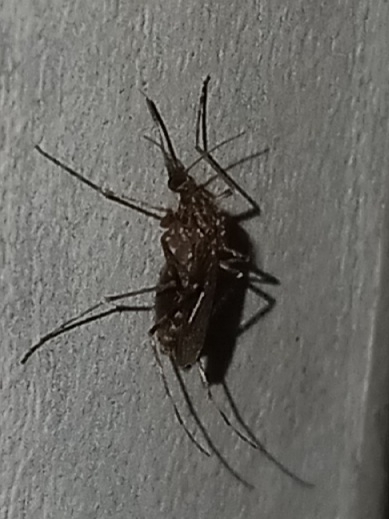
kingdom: Animalia
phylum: Arthropoda
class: Insecta
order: Diptera
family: Culicidae
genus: Psorophora
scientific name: Psorophora columbiae
